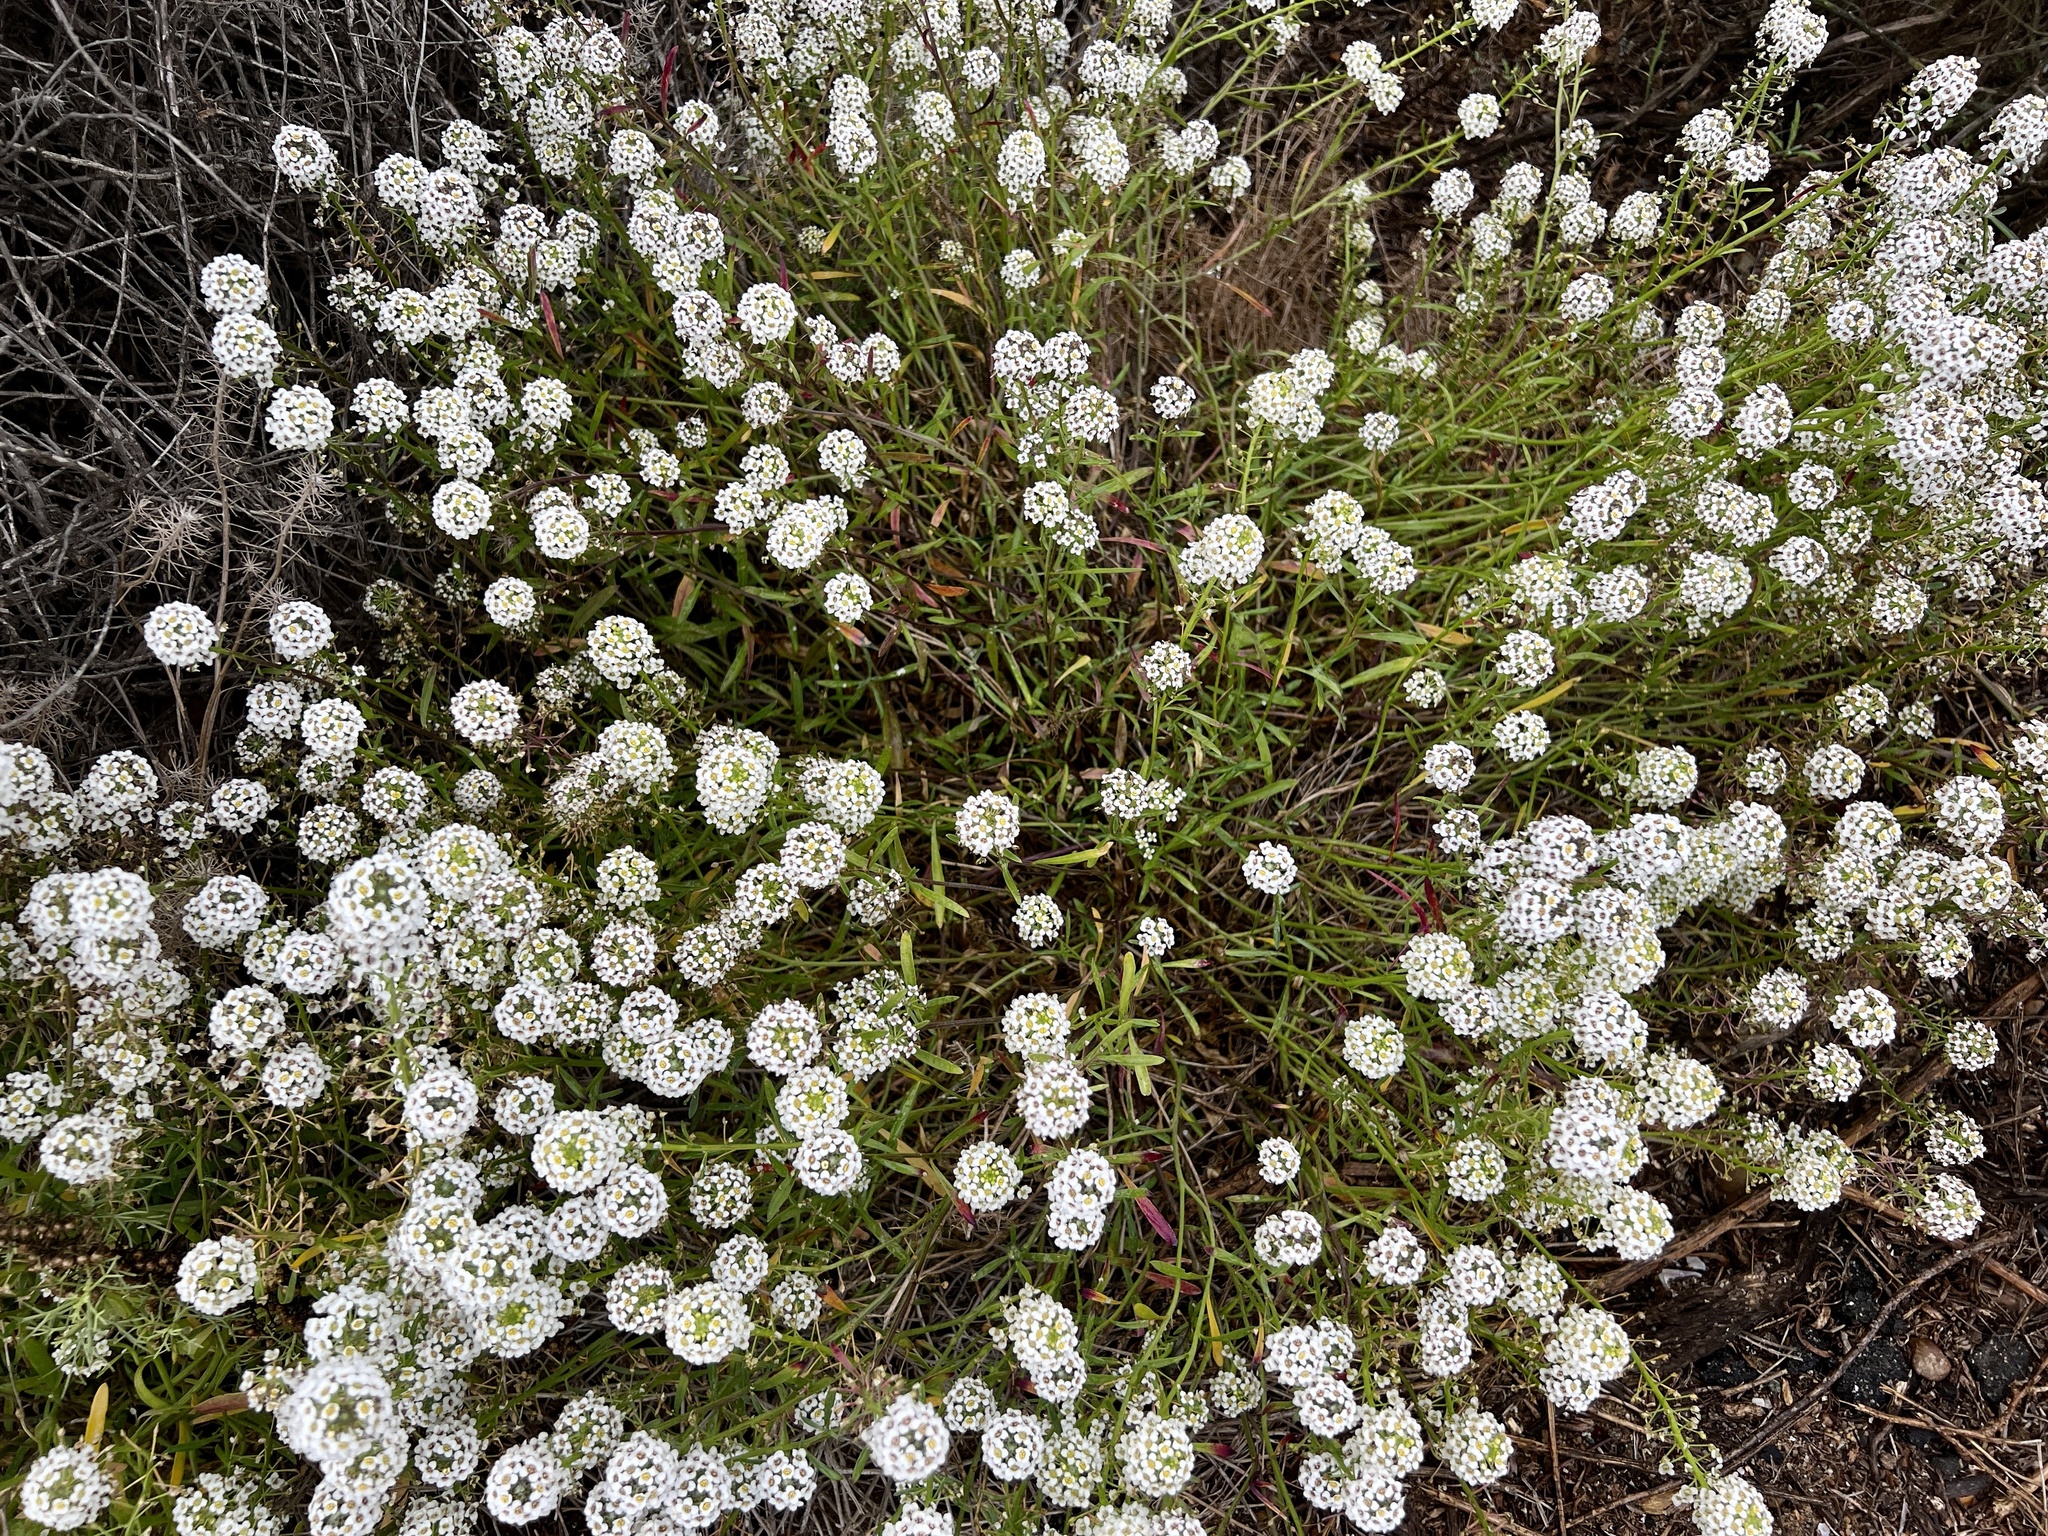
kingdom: Plantae
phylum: Tracheophyta
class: Magnoliopsida
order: Brassicales
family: Brassicaceae
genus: Lobularia
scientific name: Lobularia maritima
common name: Sweet alison
